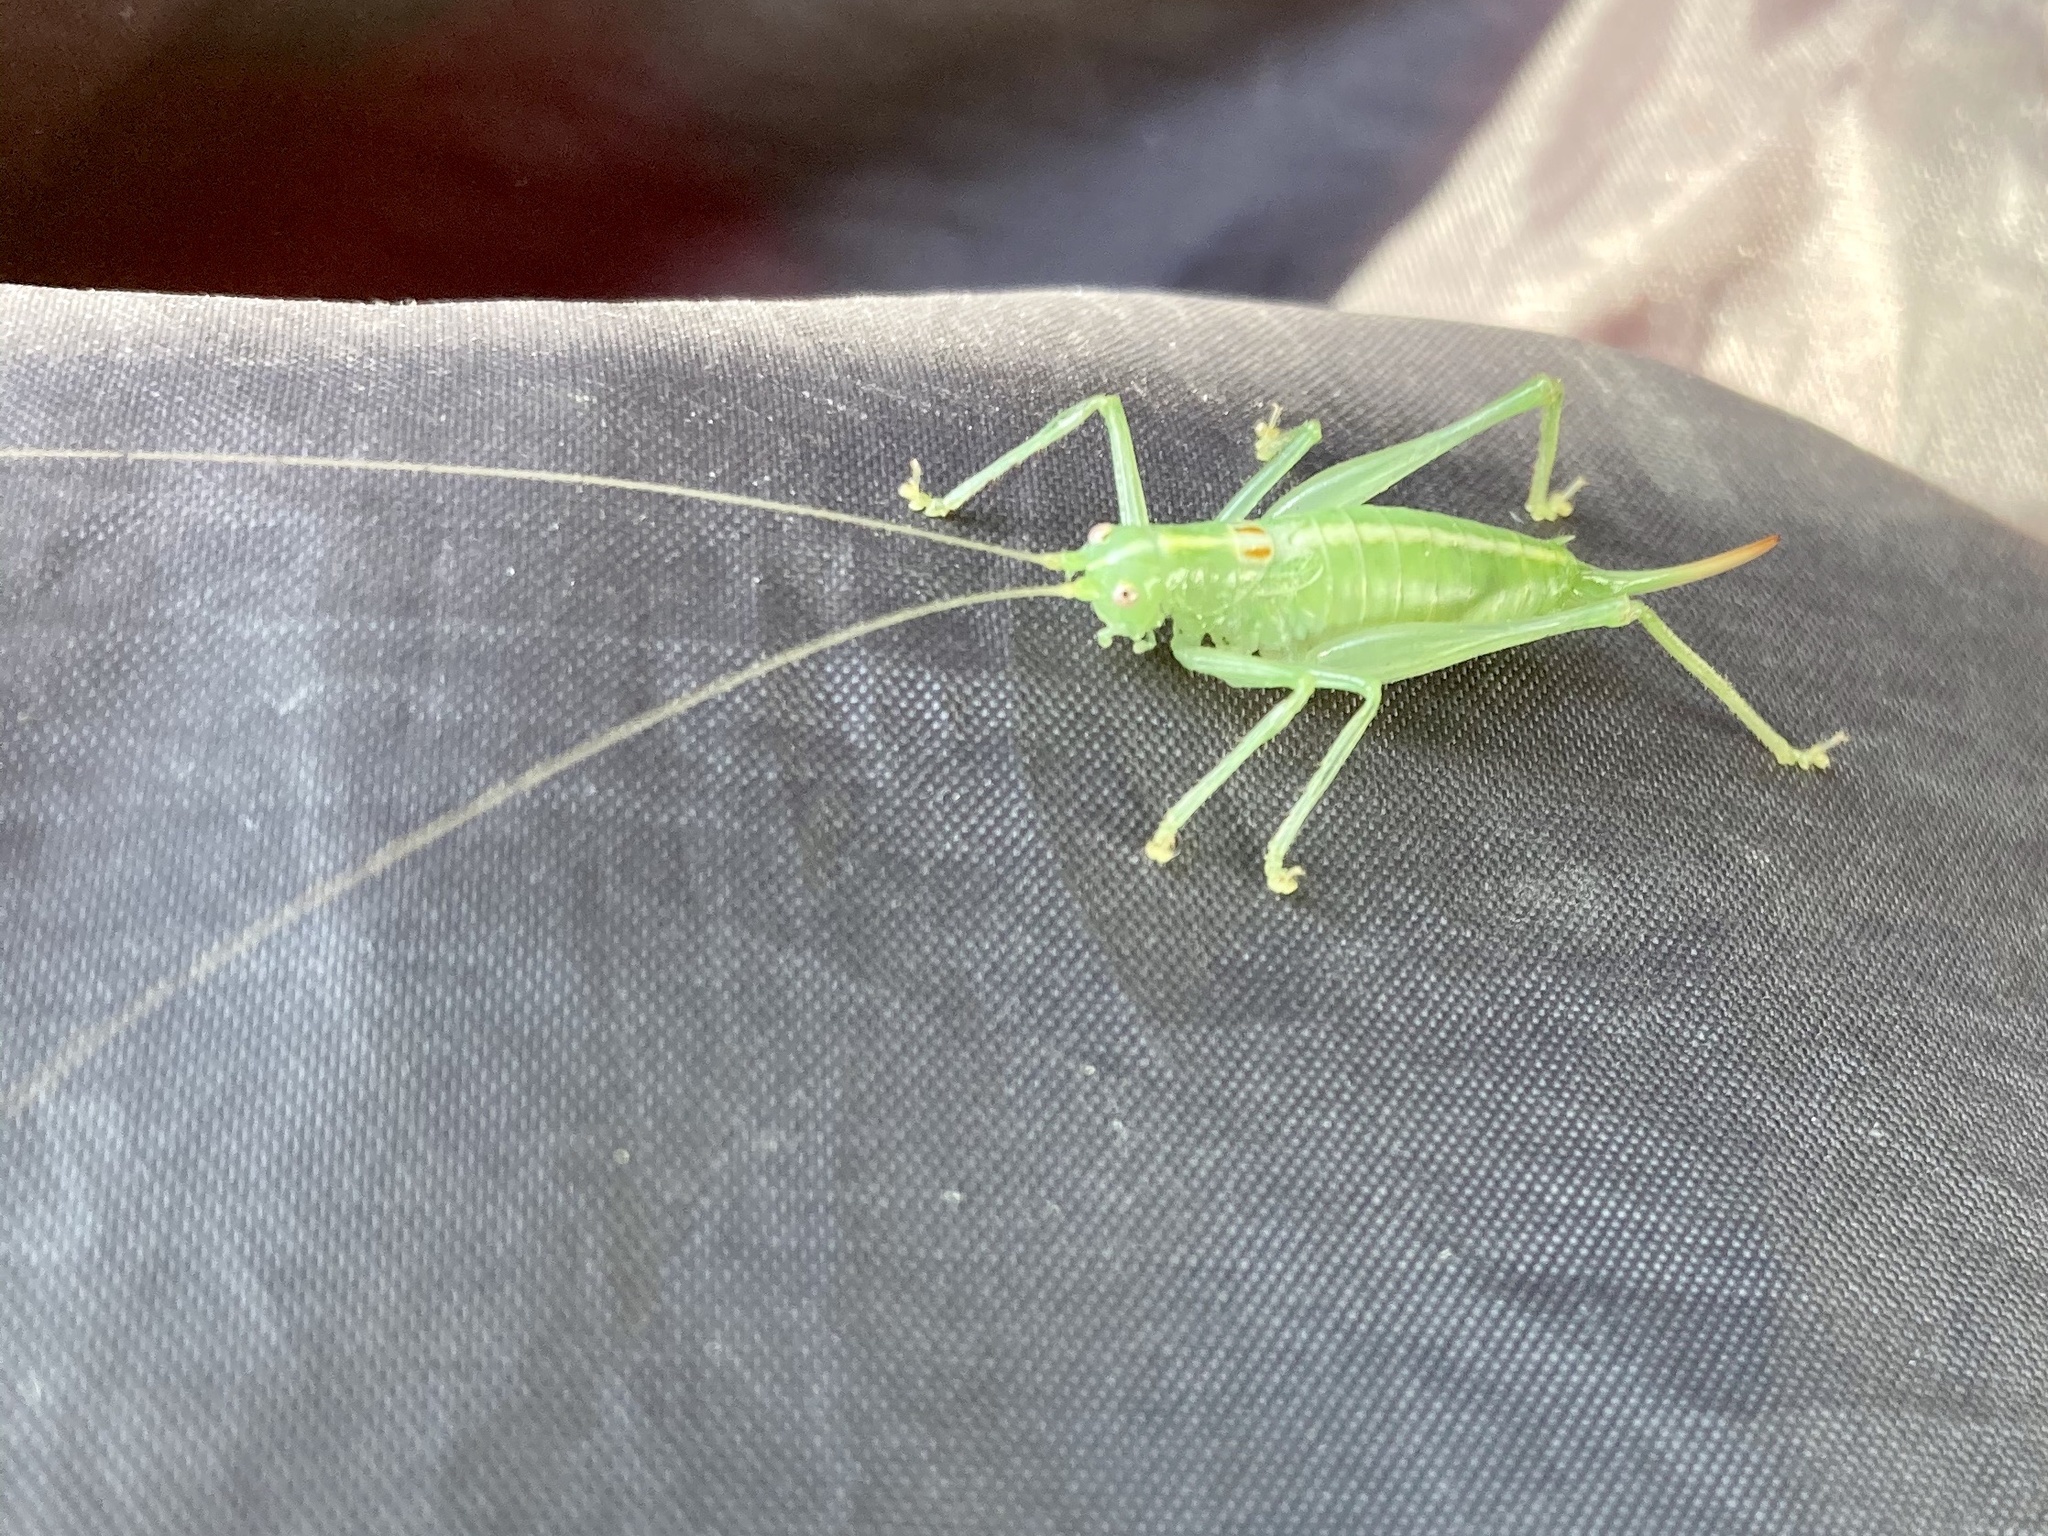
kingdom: Animalia
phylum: Arthropoda
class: Insecta
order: Orthoptera
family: Tettigoniidae
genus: Meconema
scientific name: Meconema meridionale
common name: Southern oak bush-cricket
